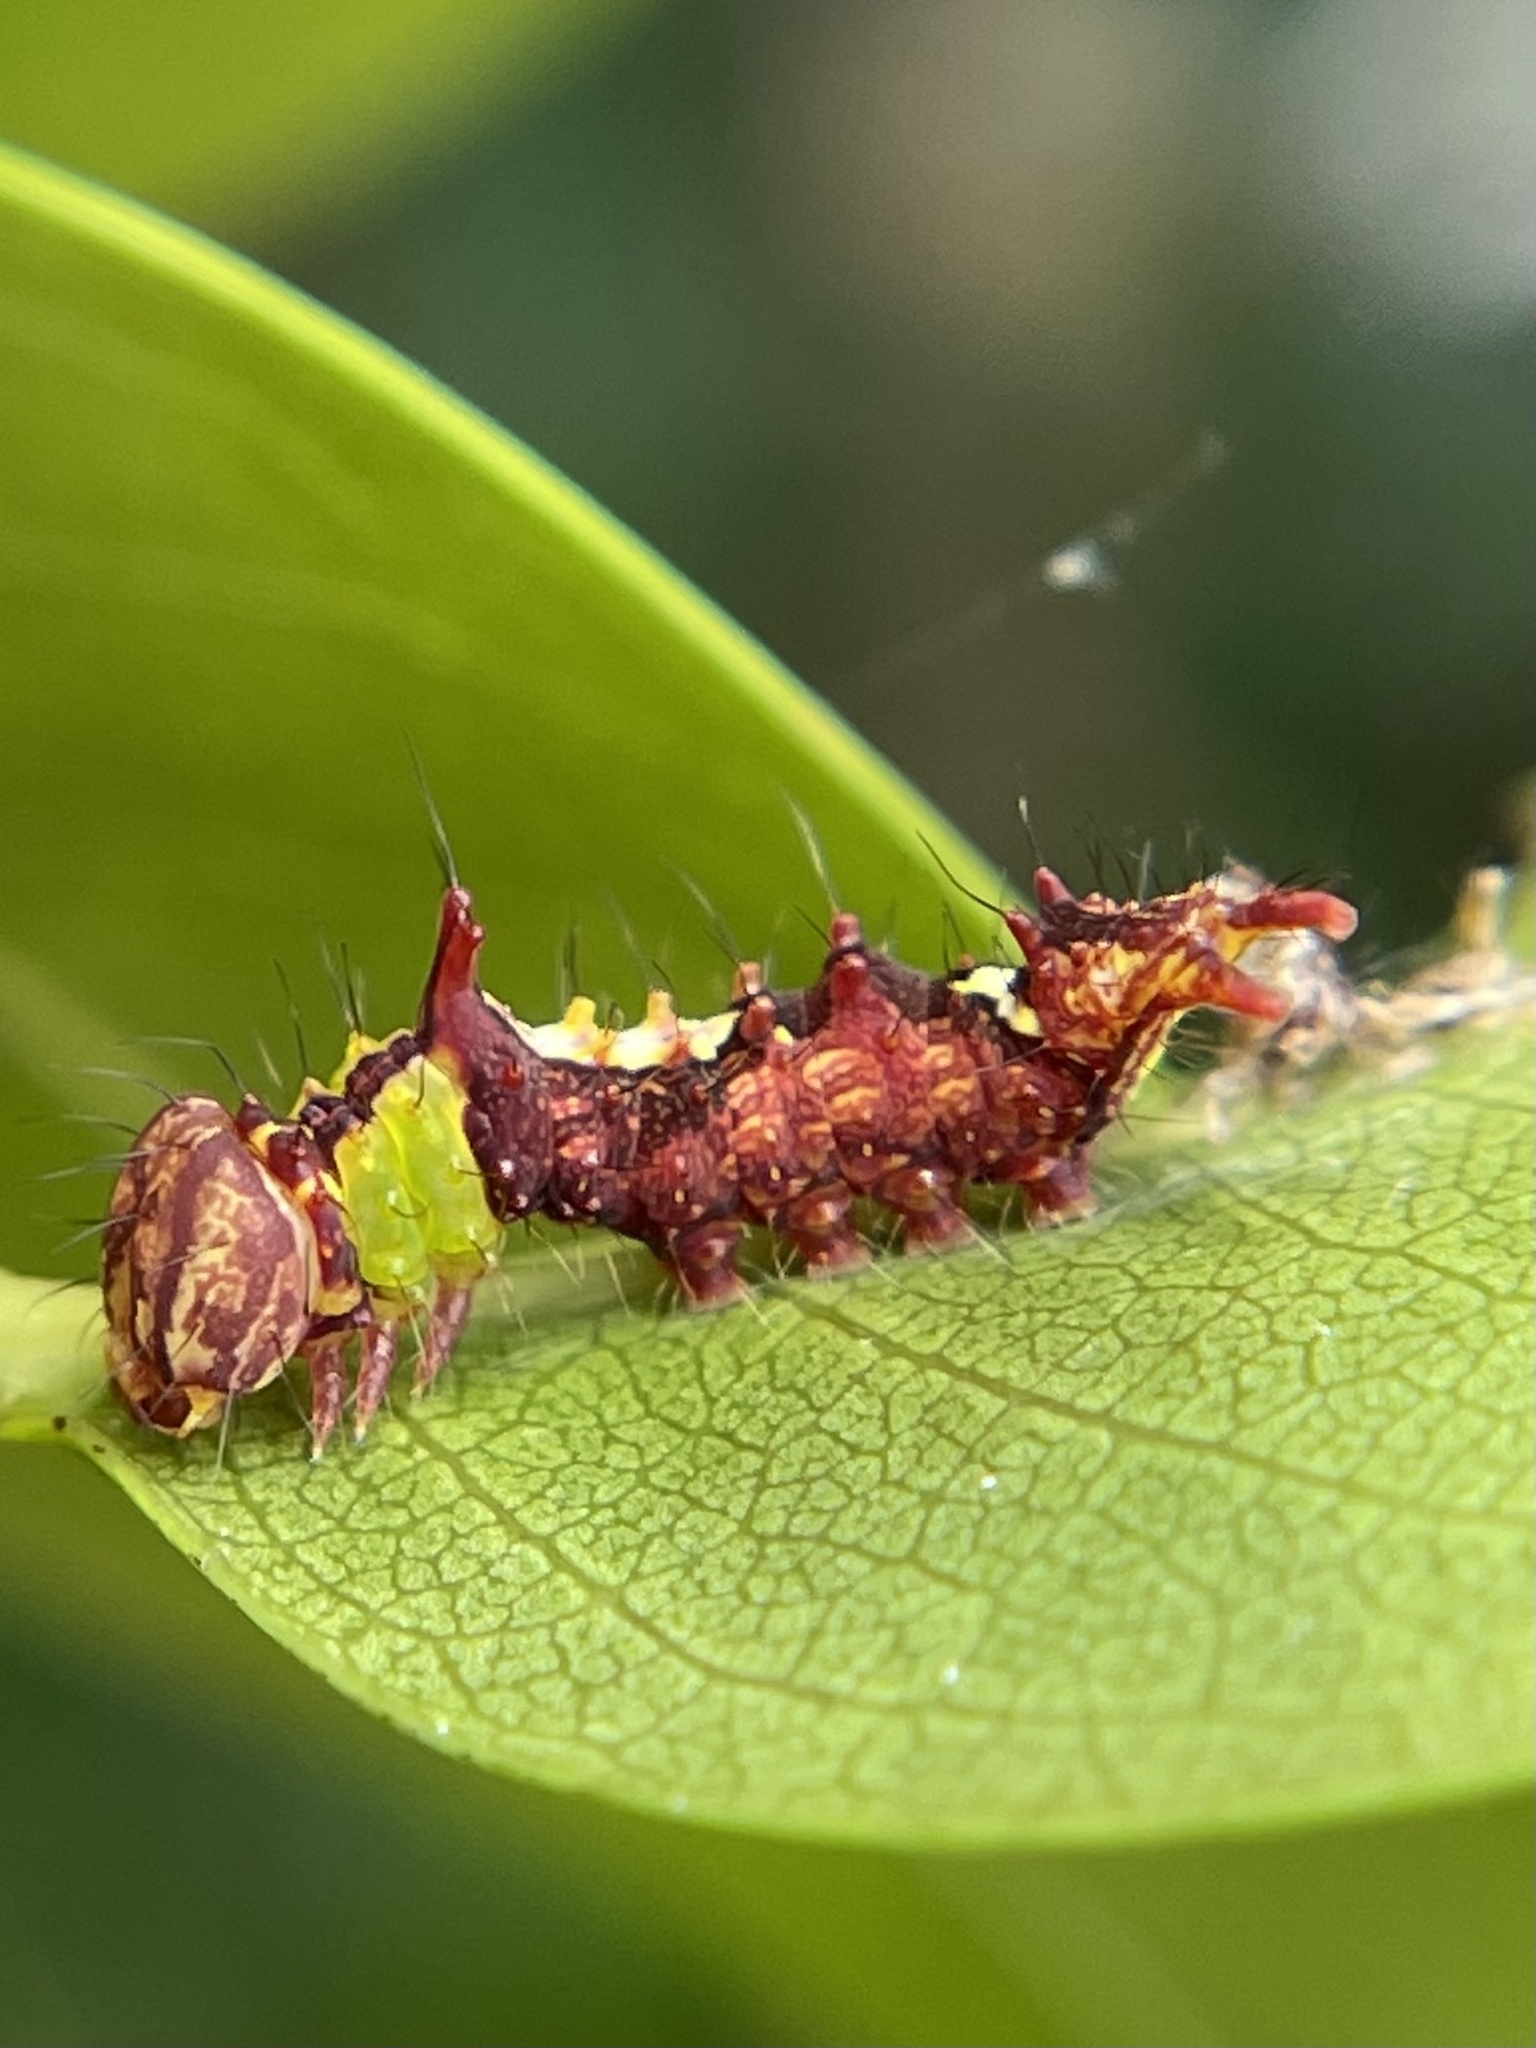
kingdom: Animalia
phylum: Arthropoda
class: Insecta
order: Lepidoptera
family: Notodontidae
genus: Schizura
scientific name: Schizura
